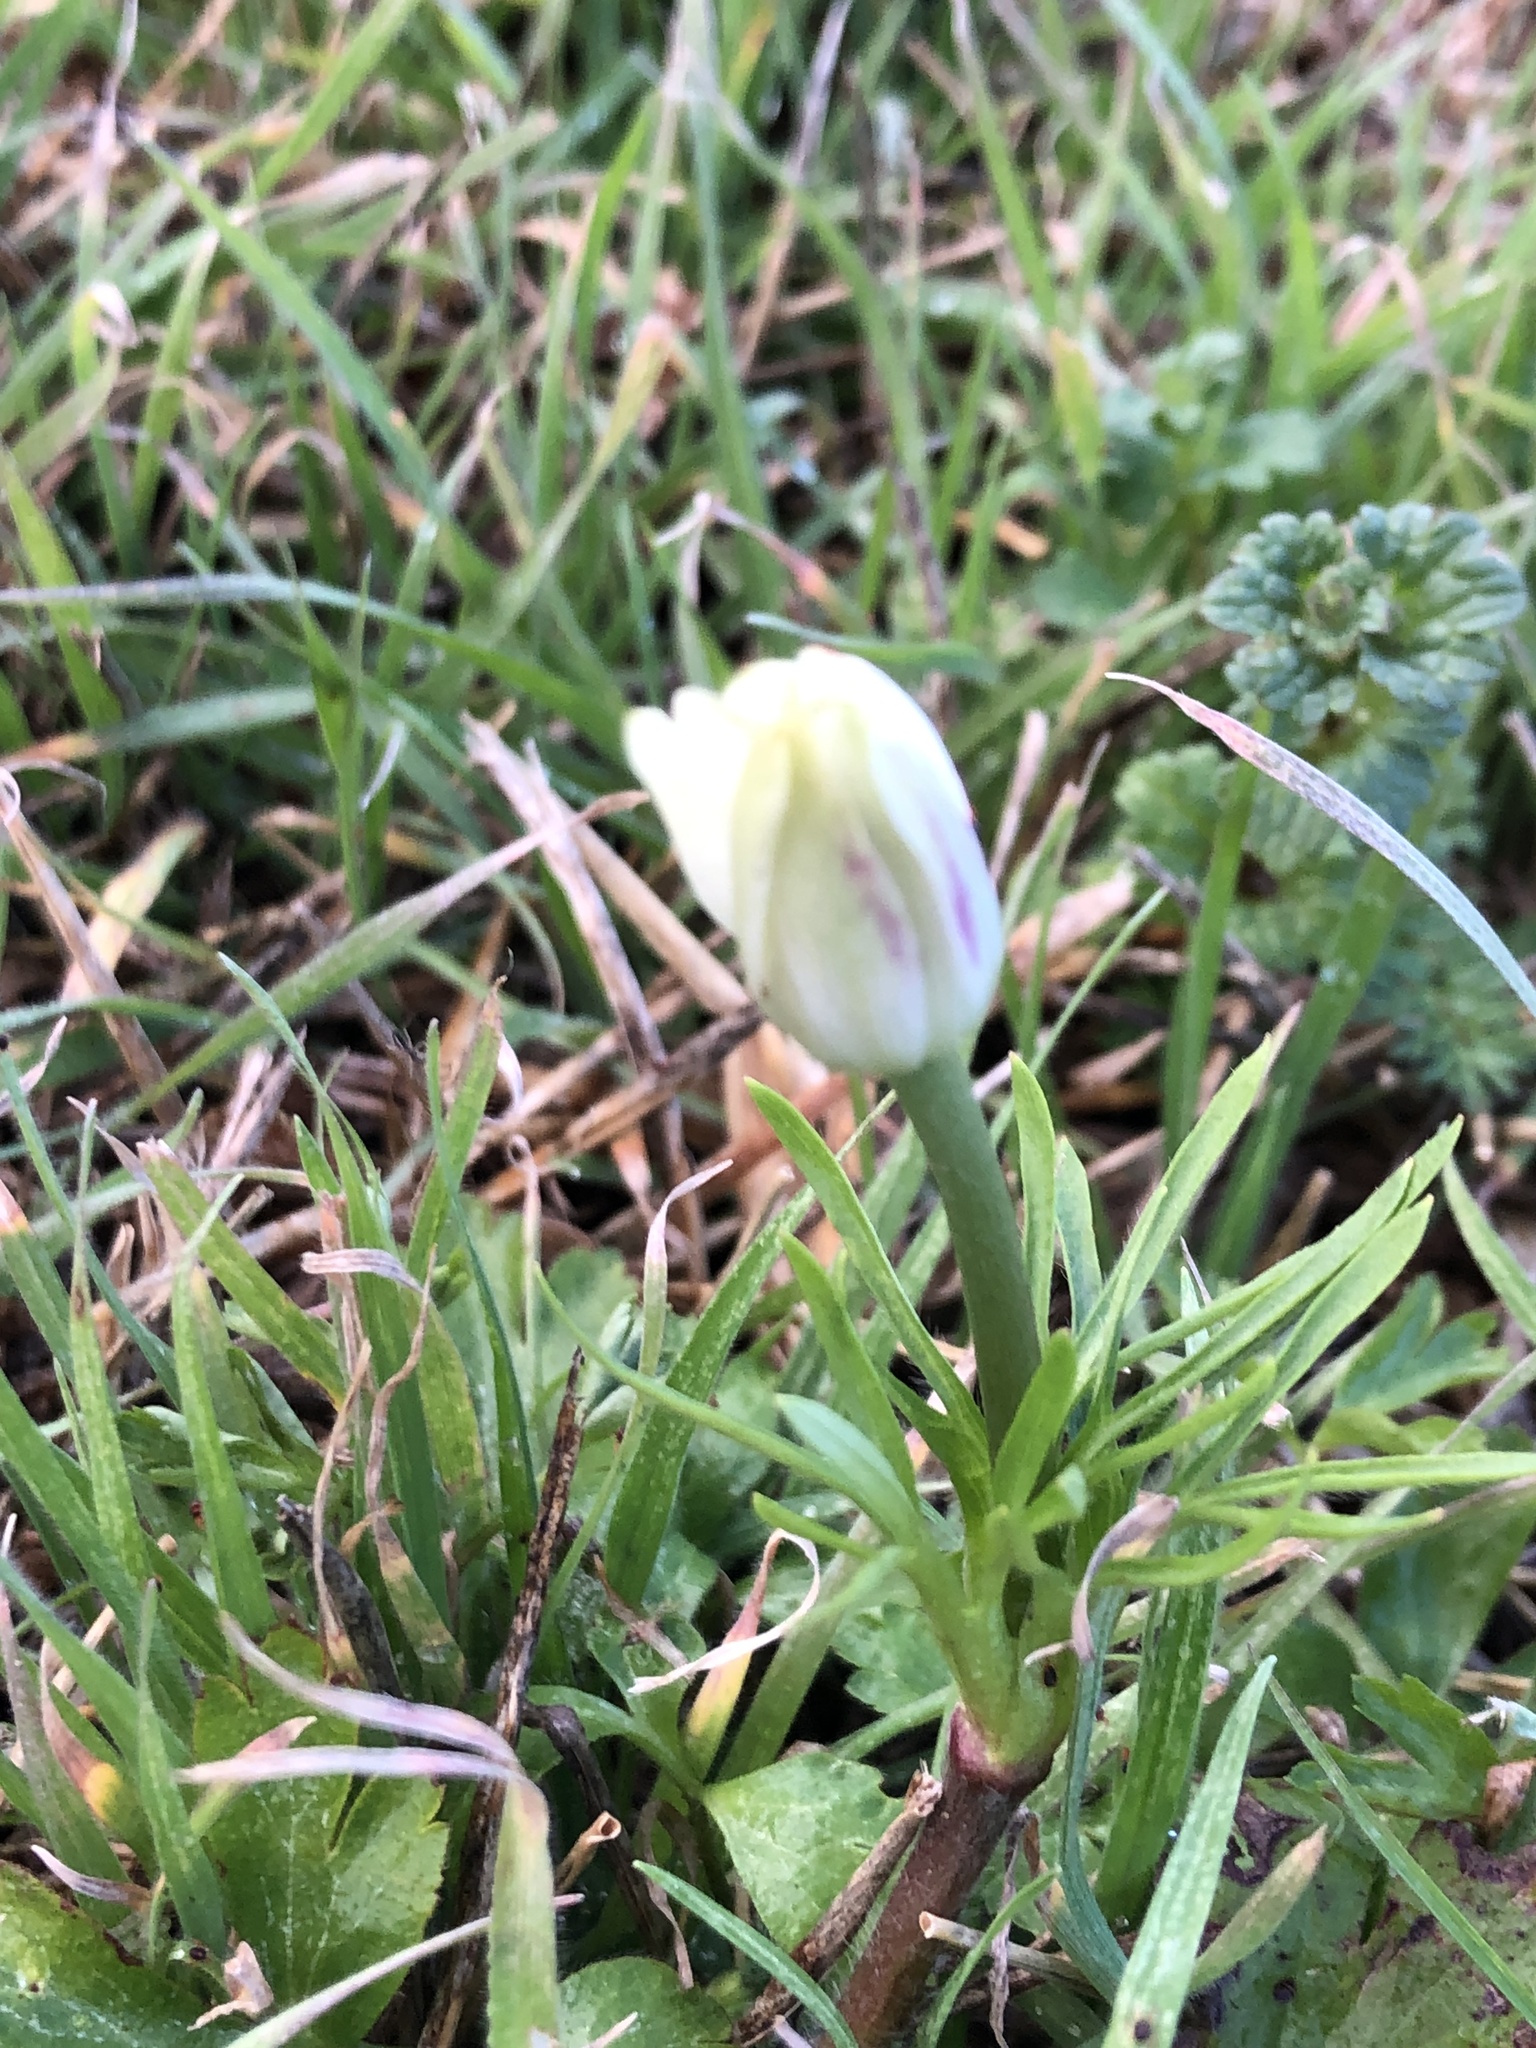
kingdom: Plantae
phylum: Tracheophyta
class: Magnoliopsida
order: Ranunculales
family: Ranunculaceae
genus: Anemone
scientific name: Anemone berlandieri
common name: Ten-petal anemone
